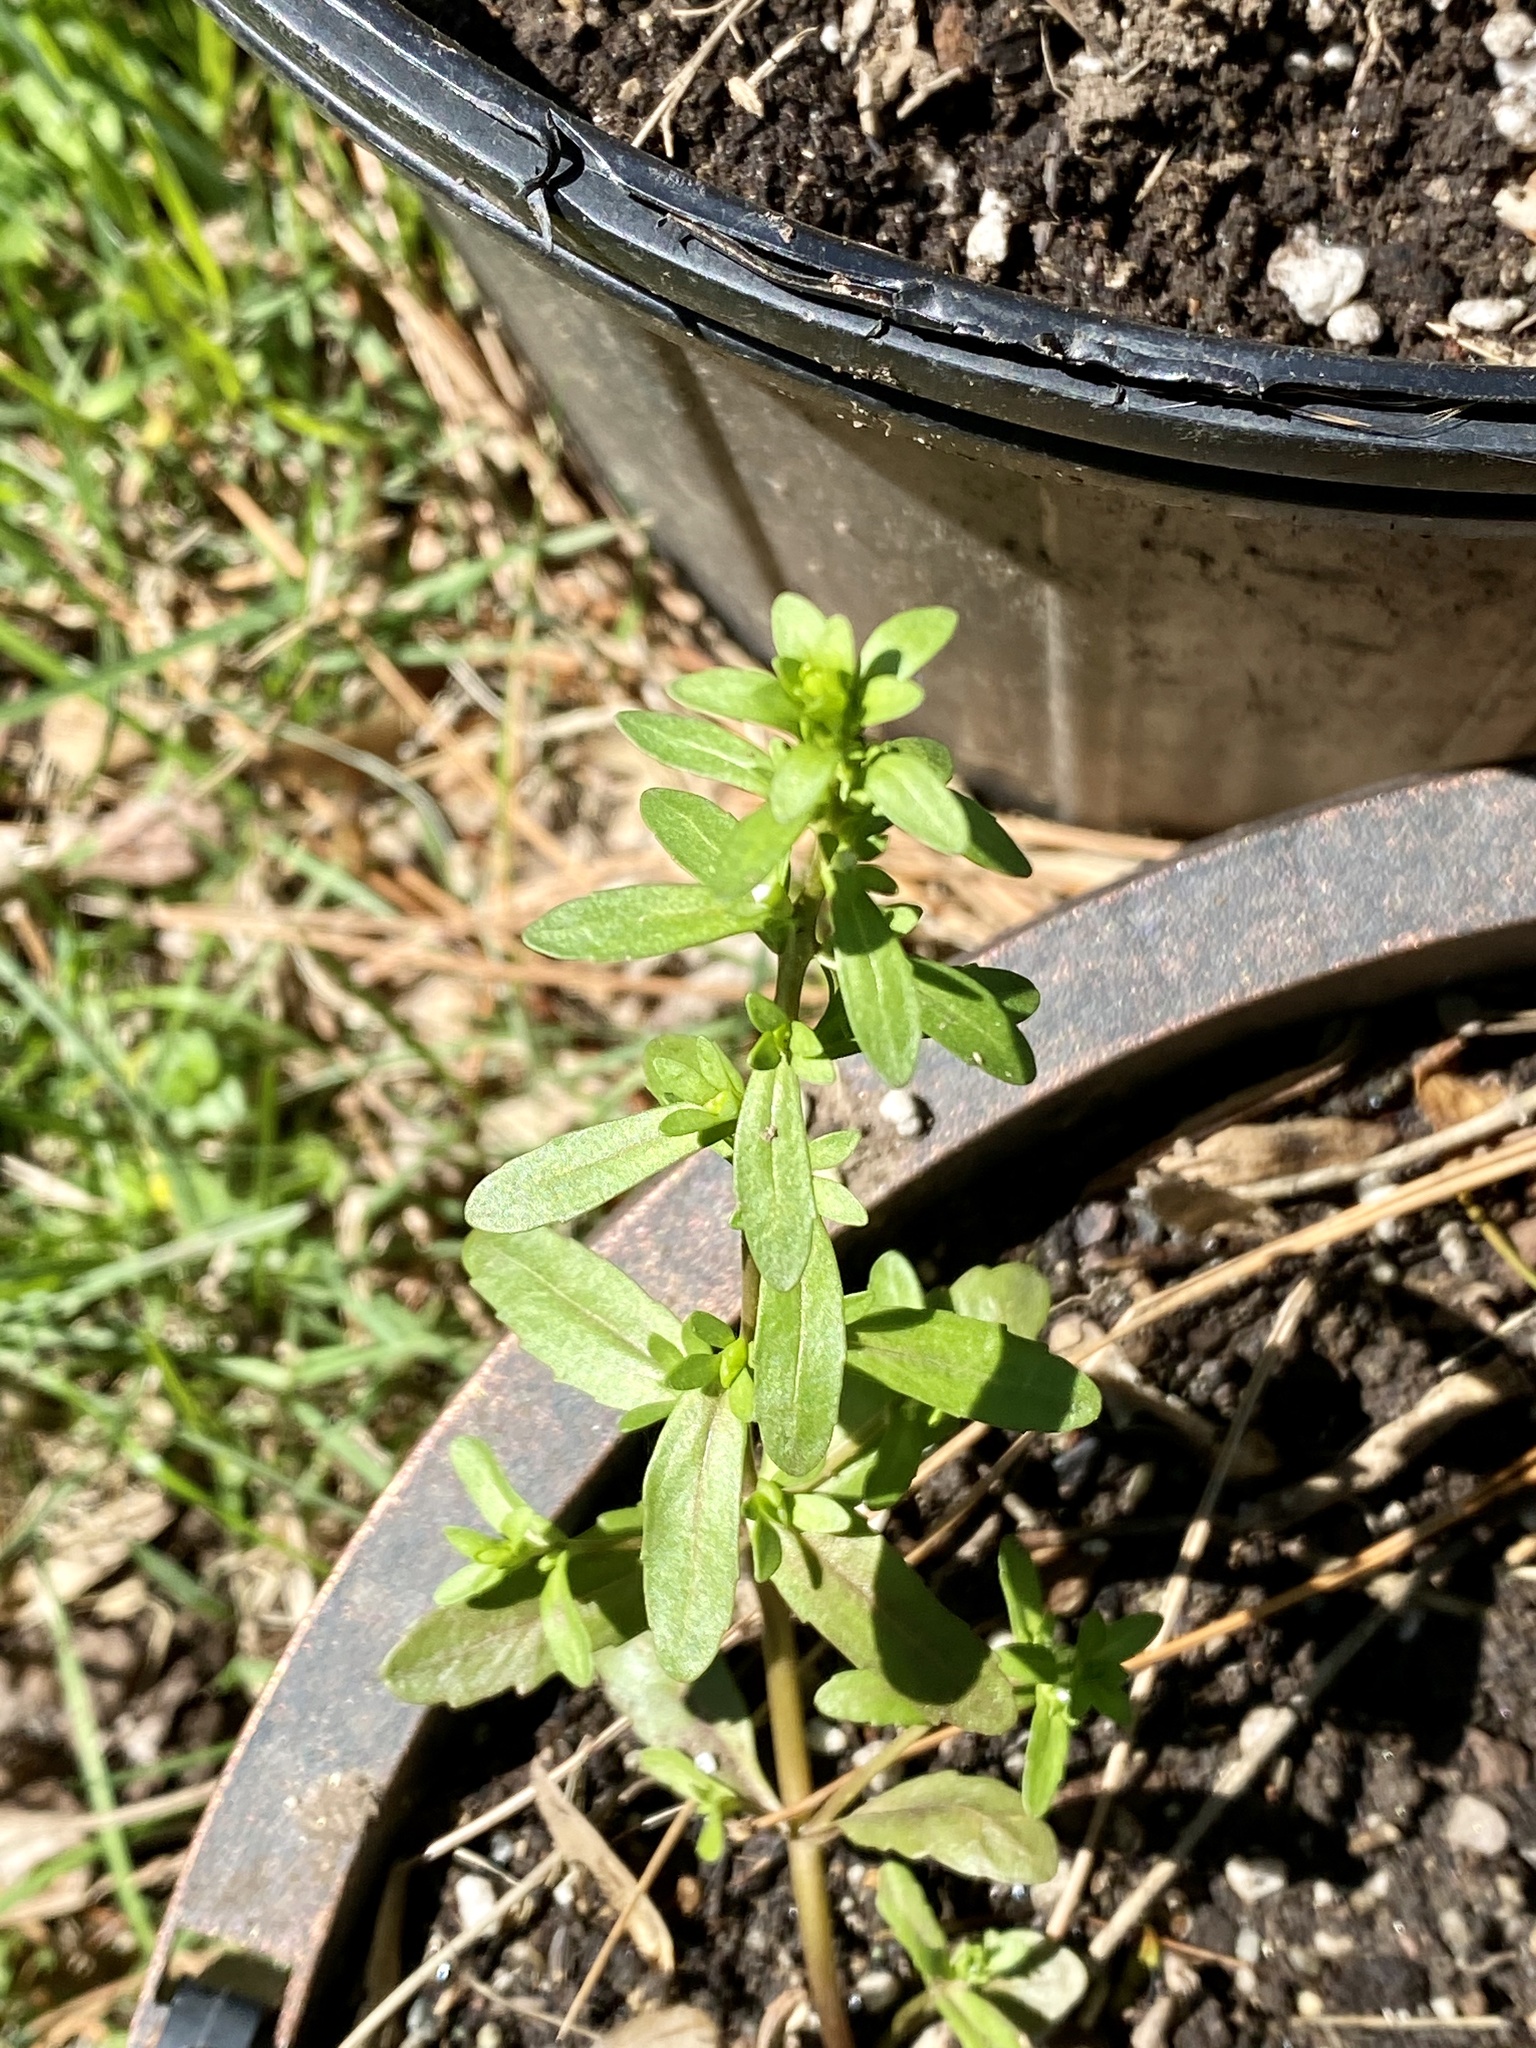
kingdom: Plantae
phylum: Tracheophyta
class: Magnoliopsida
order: Lamiales
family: Plantaginaceae
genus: Veronica
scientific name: Veronica peregrina
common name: Neckweed
